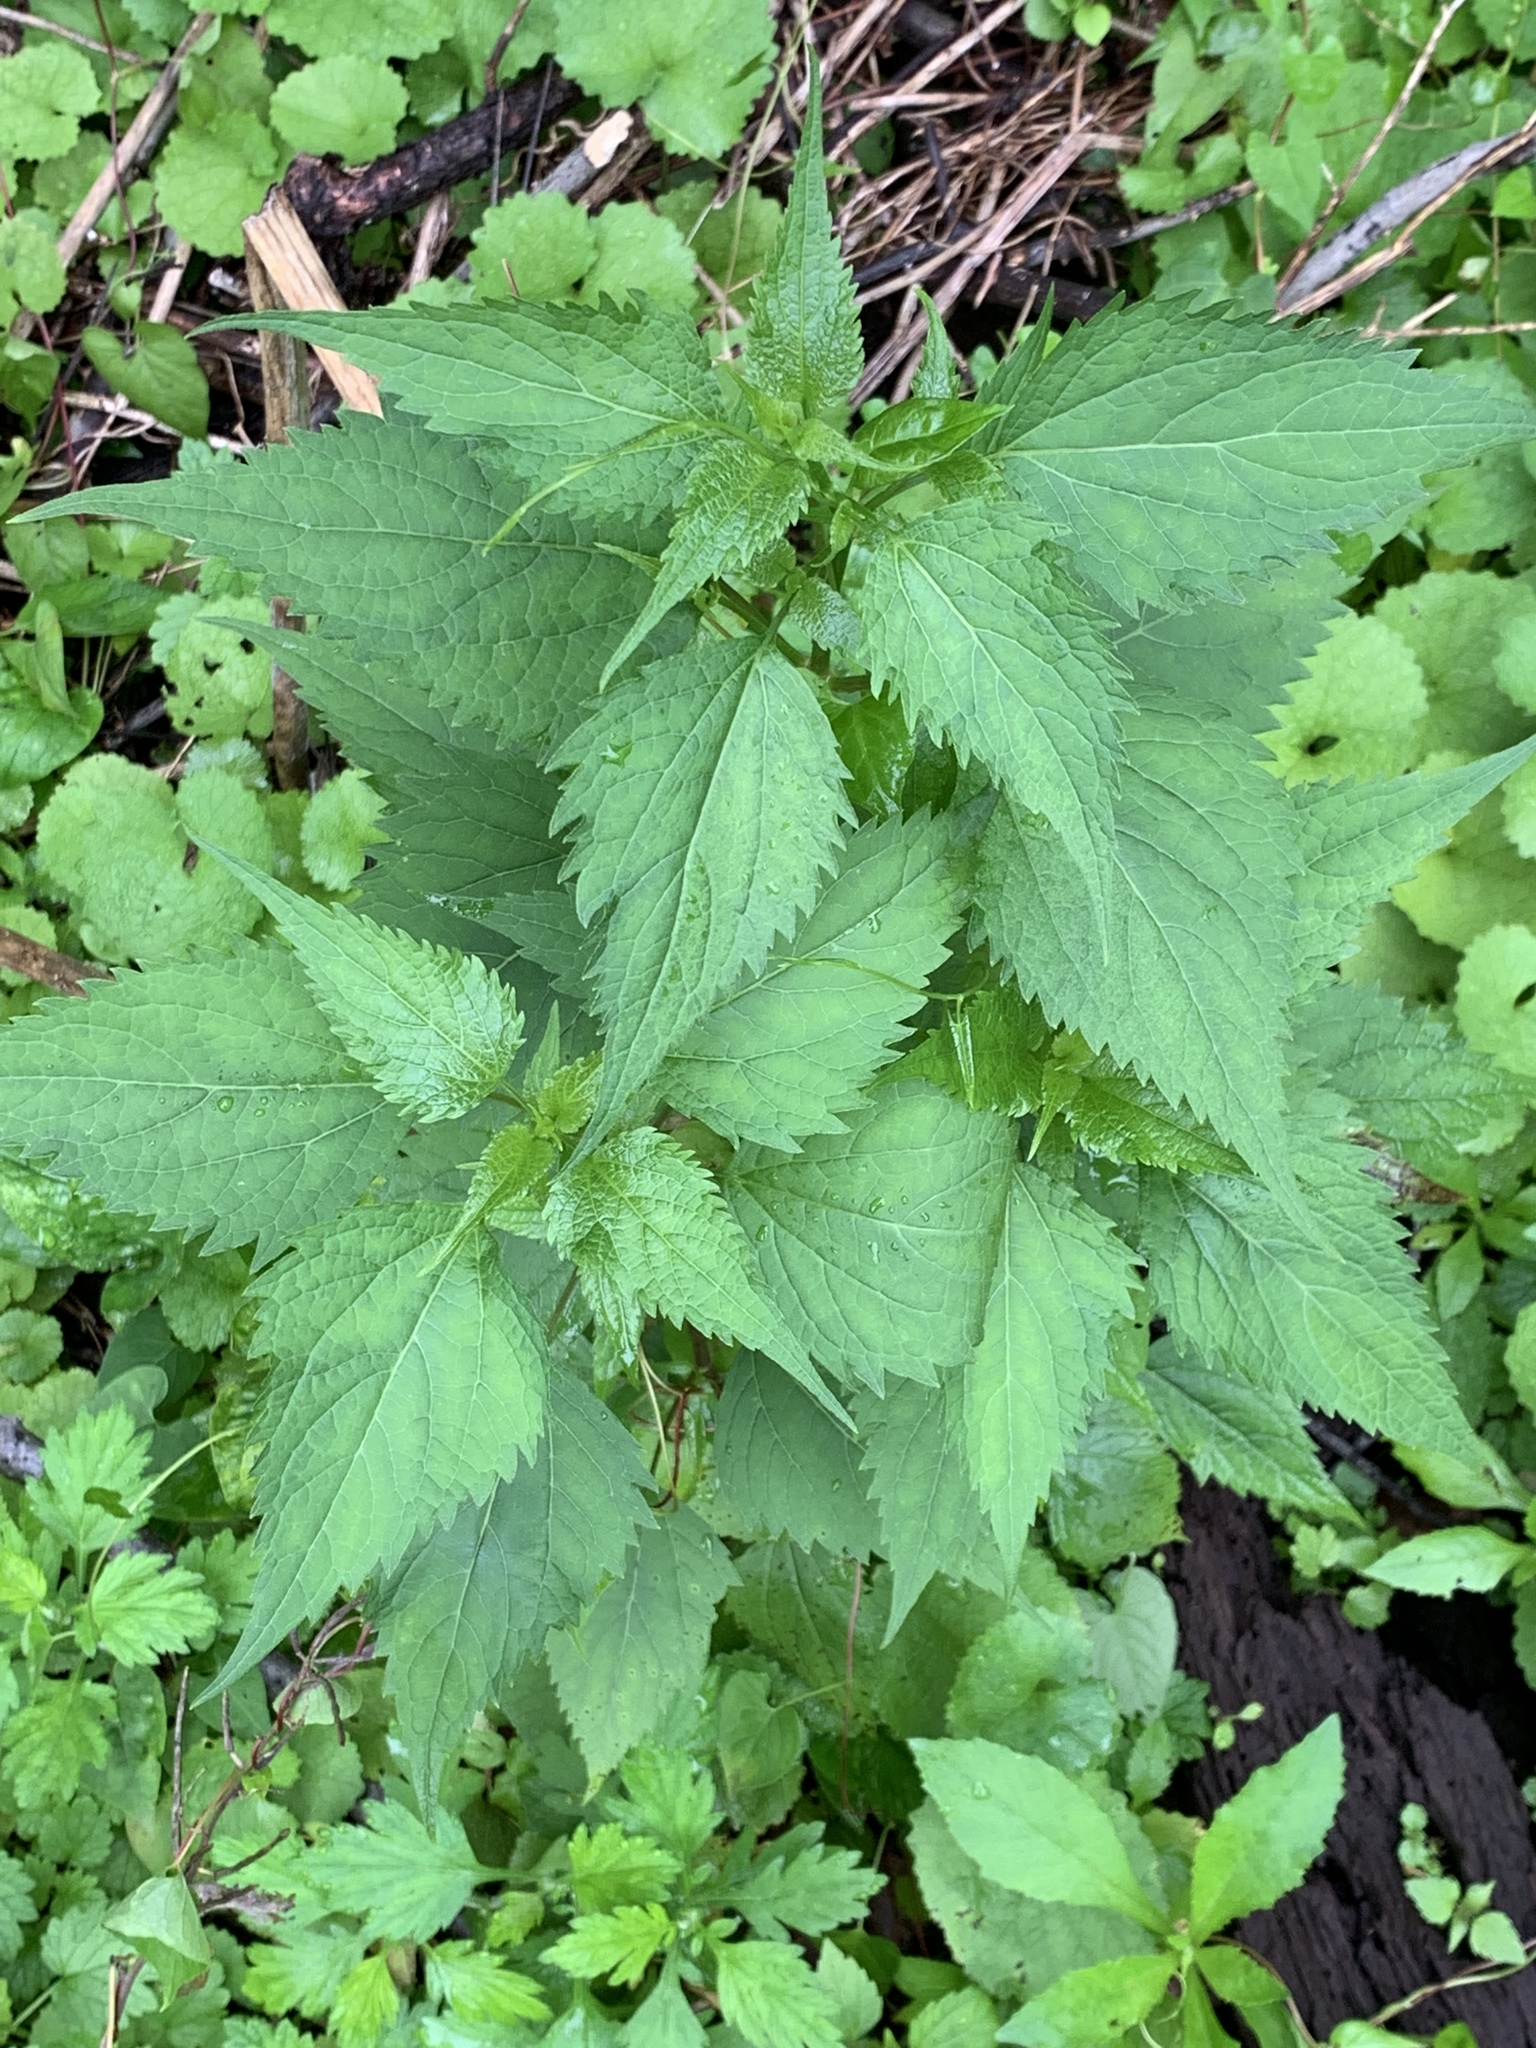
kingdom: Plantae
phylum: Tracheophyta
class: Magnoliopsida
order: Asterales
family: Asteraceae
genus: Ageratina
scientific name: Ageratina altissima
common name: White snakeroot
